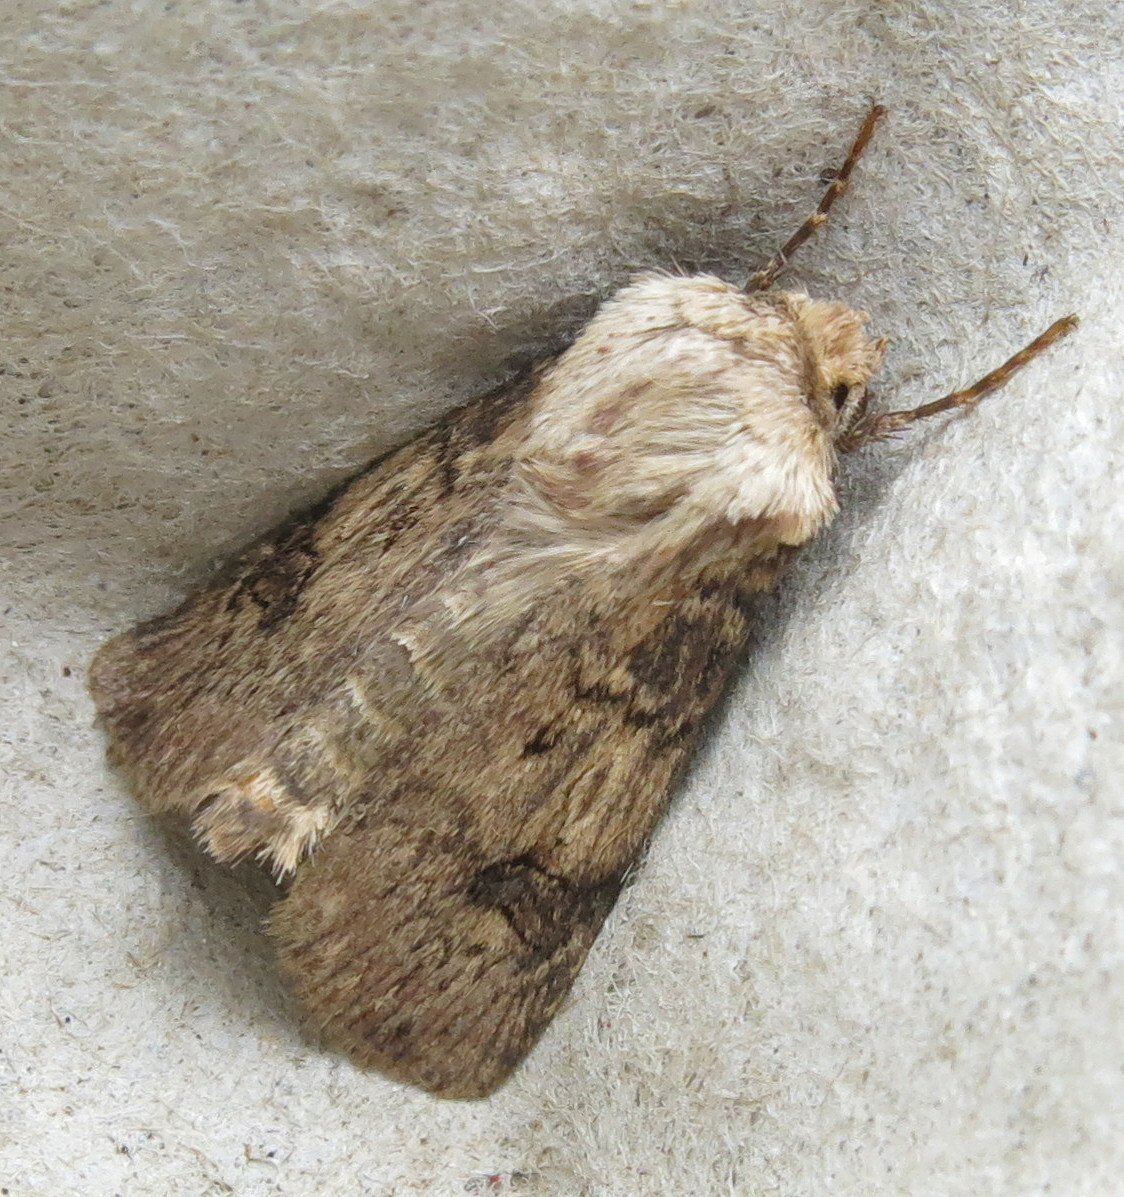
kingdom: Animalia
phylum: Arthropoda
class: Insecta
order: Lepidoptera
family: Noctuidae
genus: Agrotis
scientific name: Agrotis puta
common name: Shuttle-shaped dart
